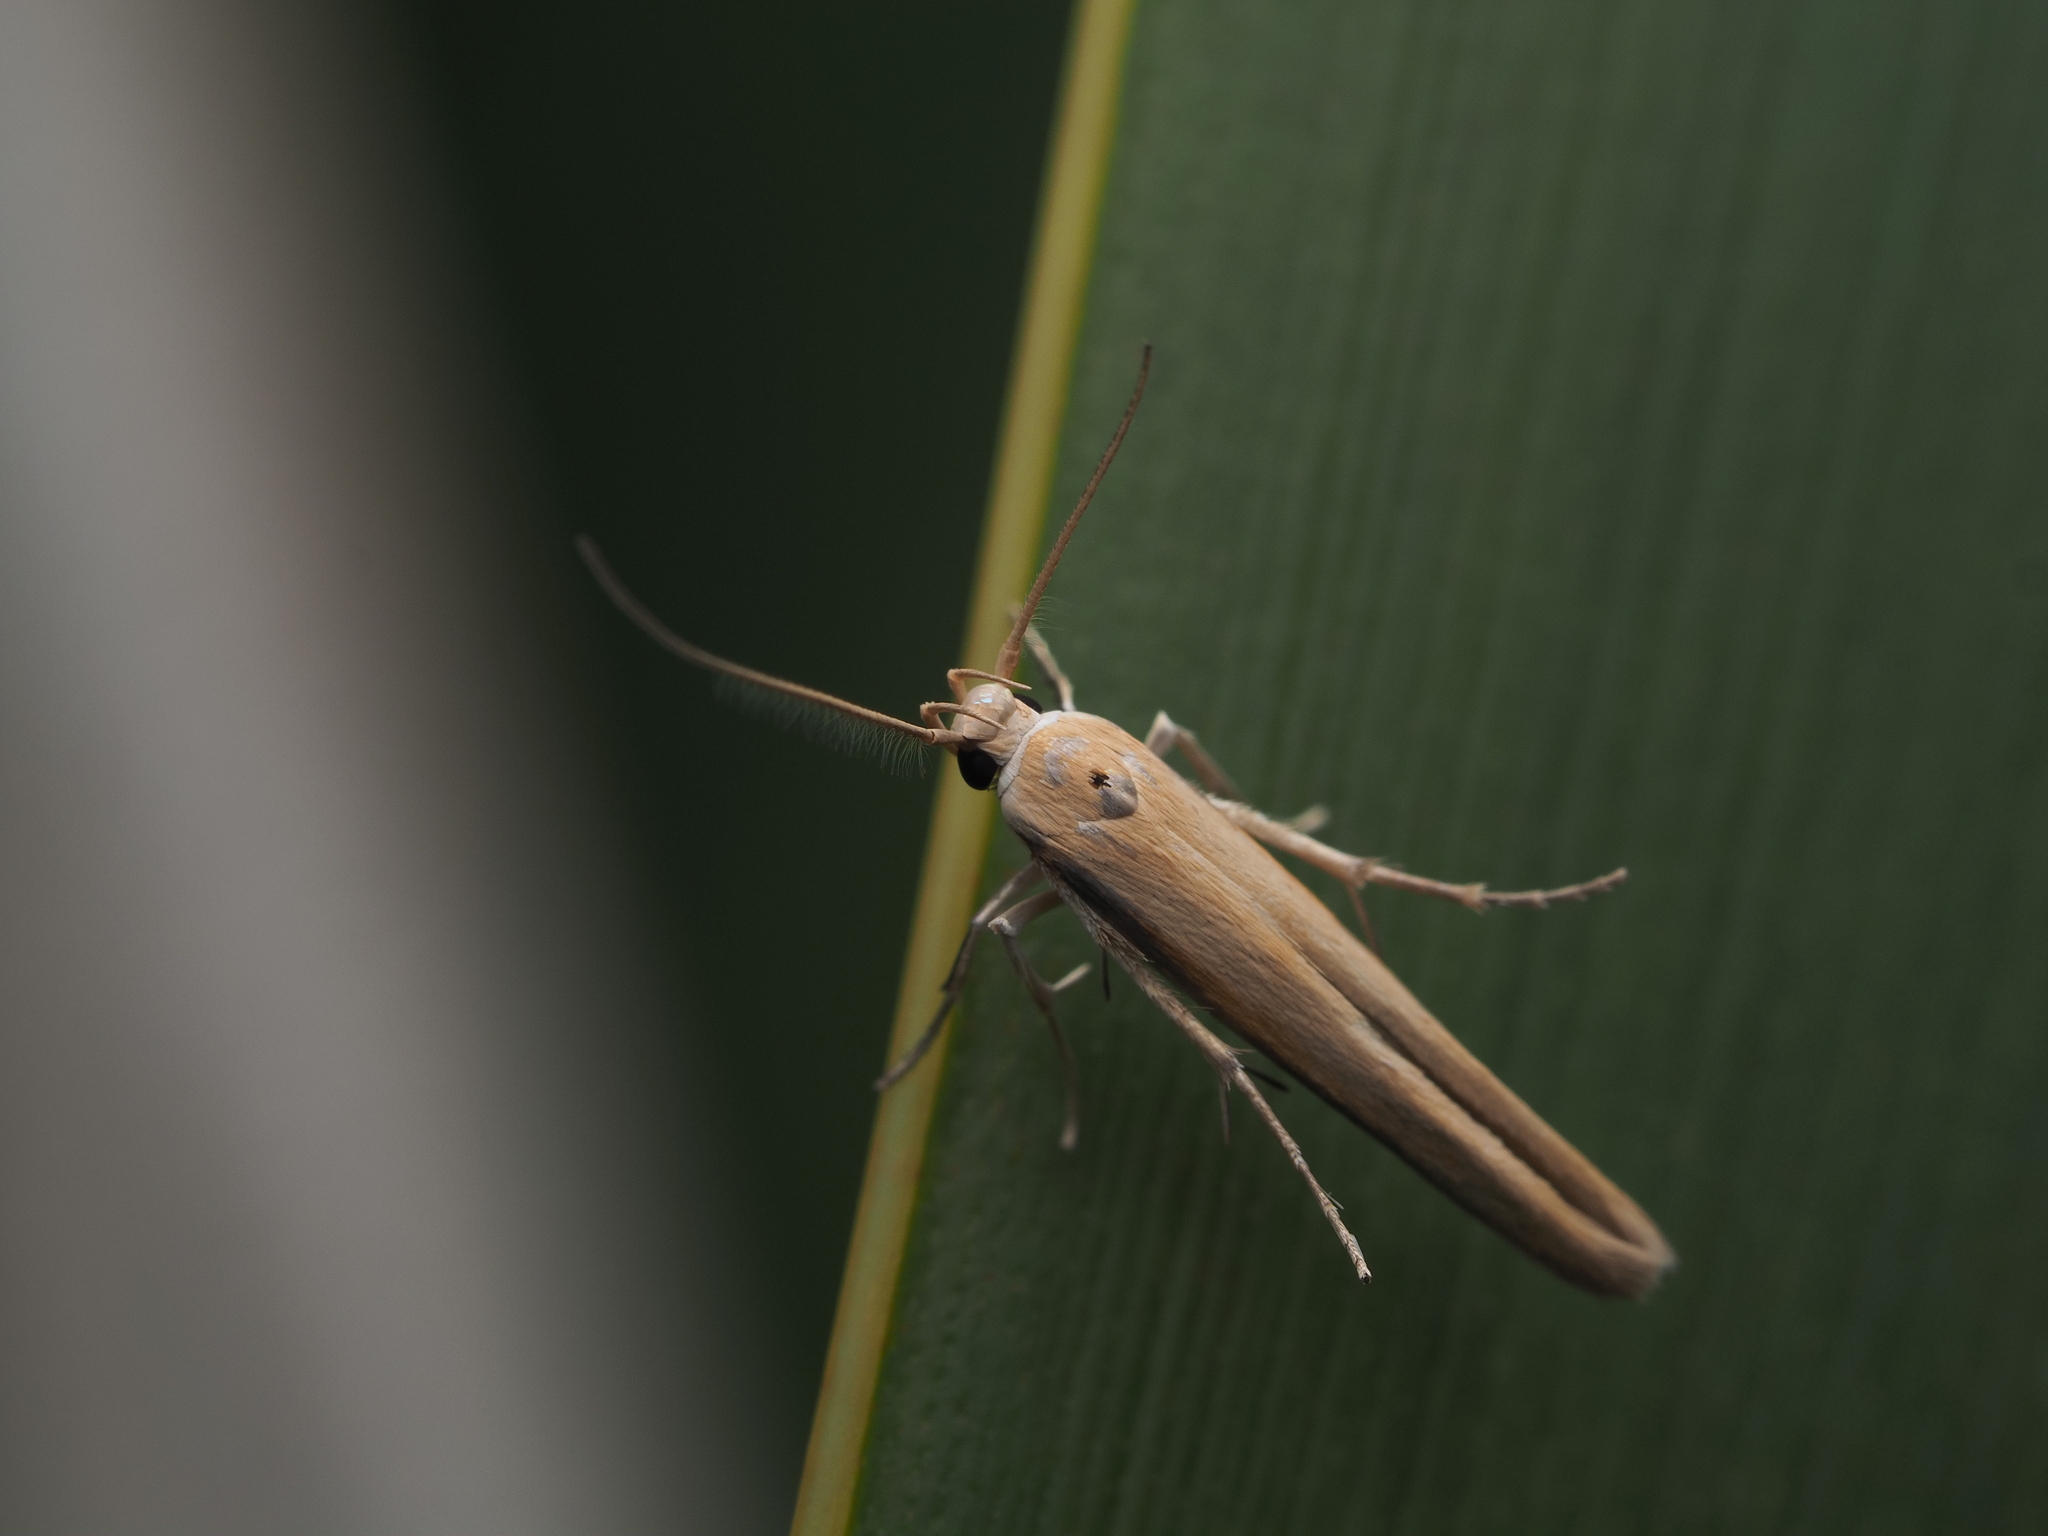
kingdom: Animalia
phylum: Arthropoda
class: Insecta
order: Lepidoptera
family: Stathmopodidae
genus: Stathmopoda
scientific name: Stathmopoda skelloni
